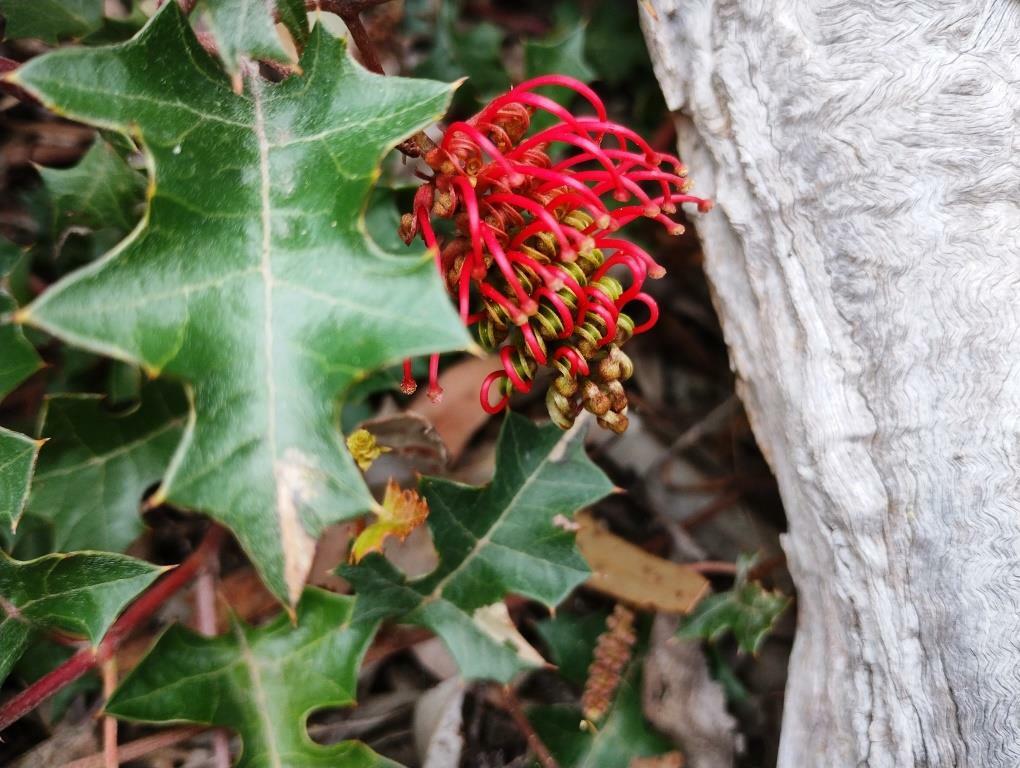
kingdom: Plantae
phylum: Tracheophyta
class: Magnoliopsida
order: Proteales
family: Proteaceae
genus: Grevillea
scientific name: Grevillea steiglitziana
